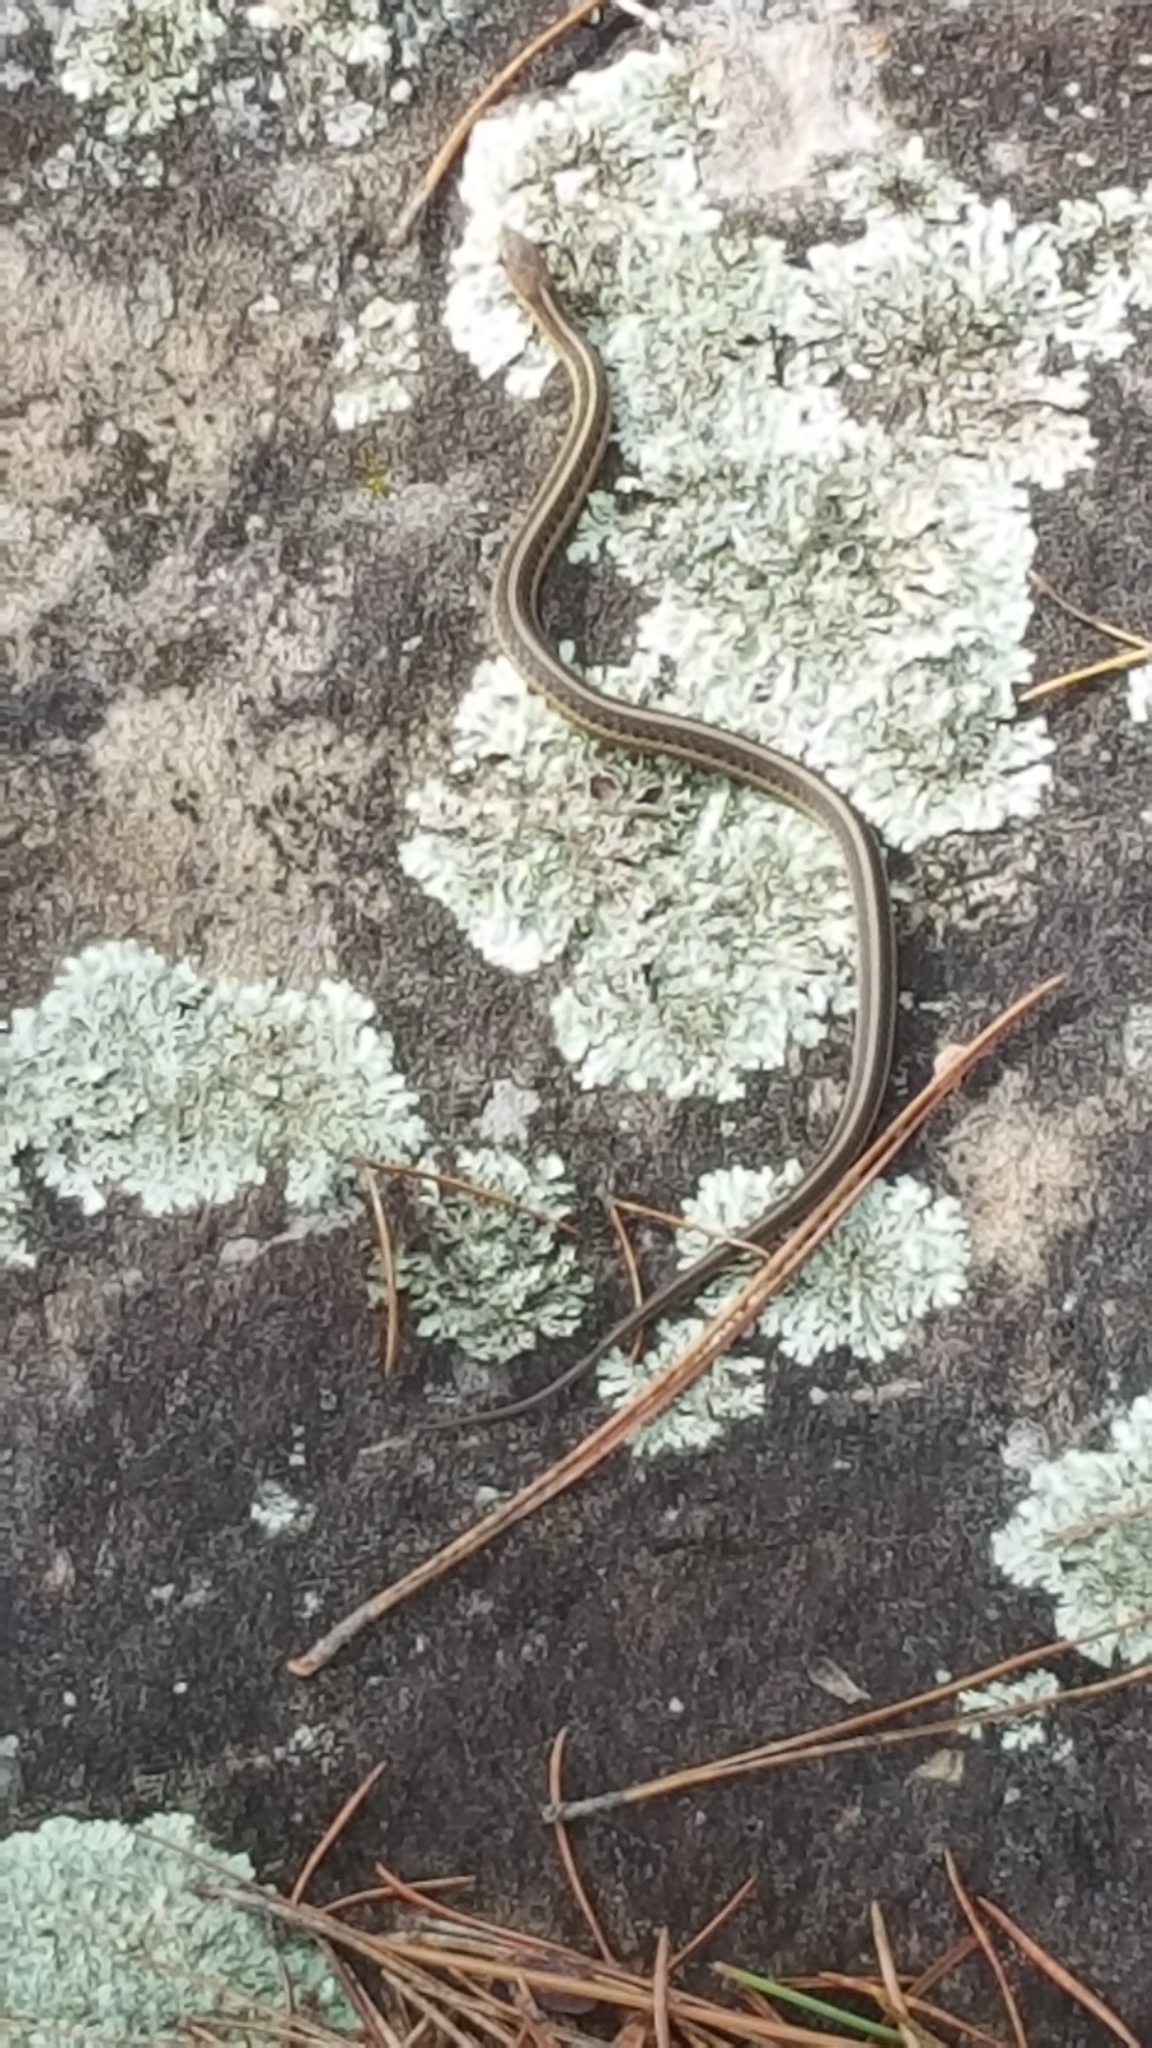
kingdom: Animalia
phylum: Chordata
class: Squamata
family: Colubridae
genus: Thamnophis
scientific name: Thamnophis sirtalis
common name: Common garter snake
